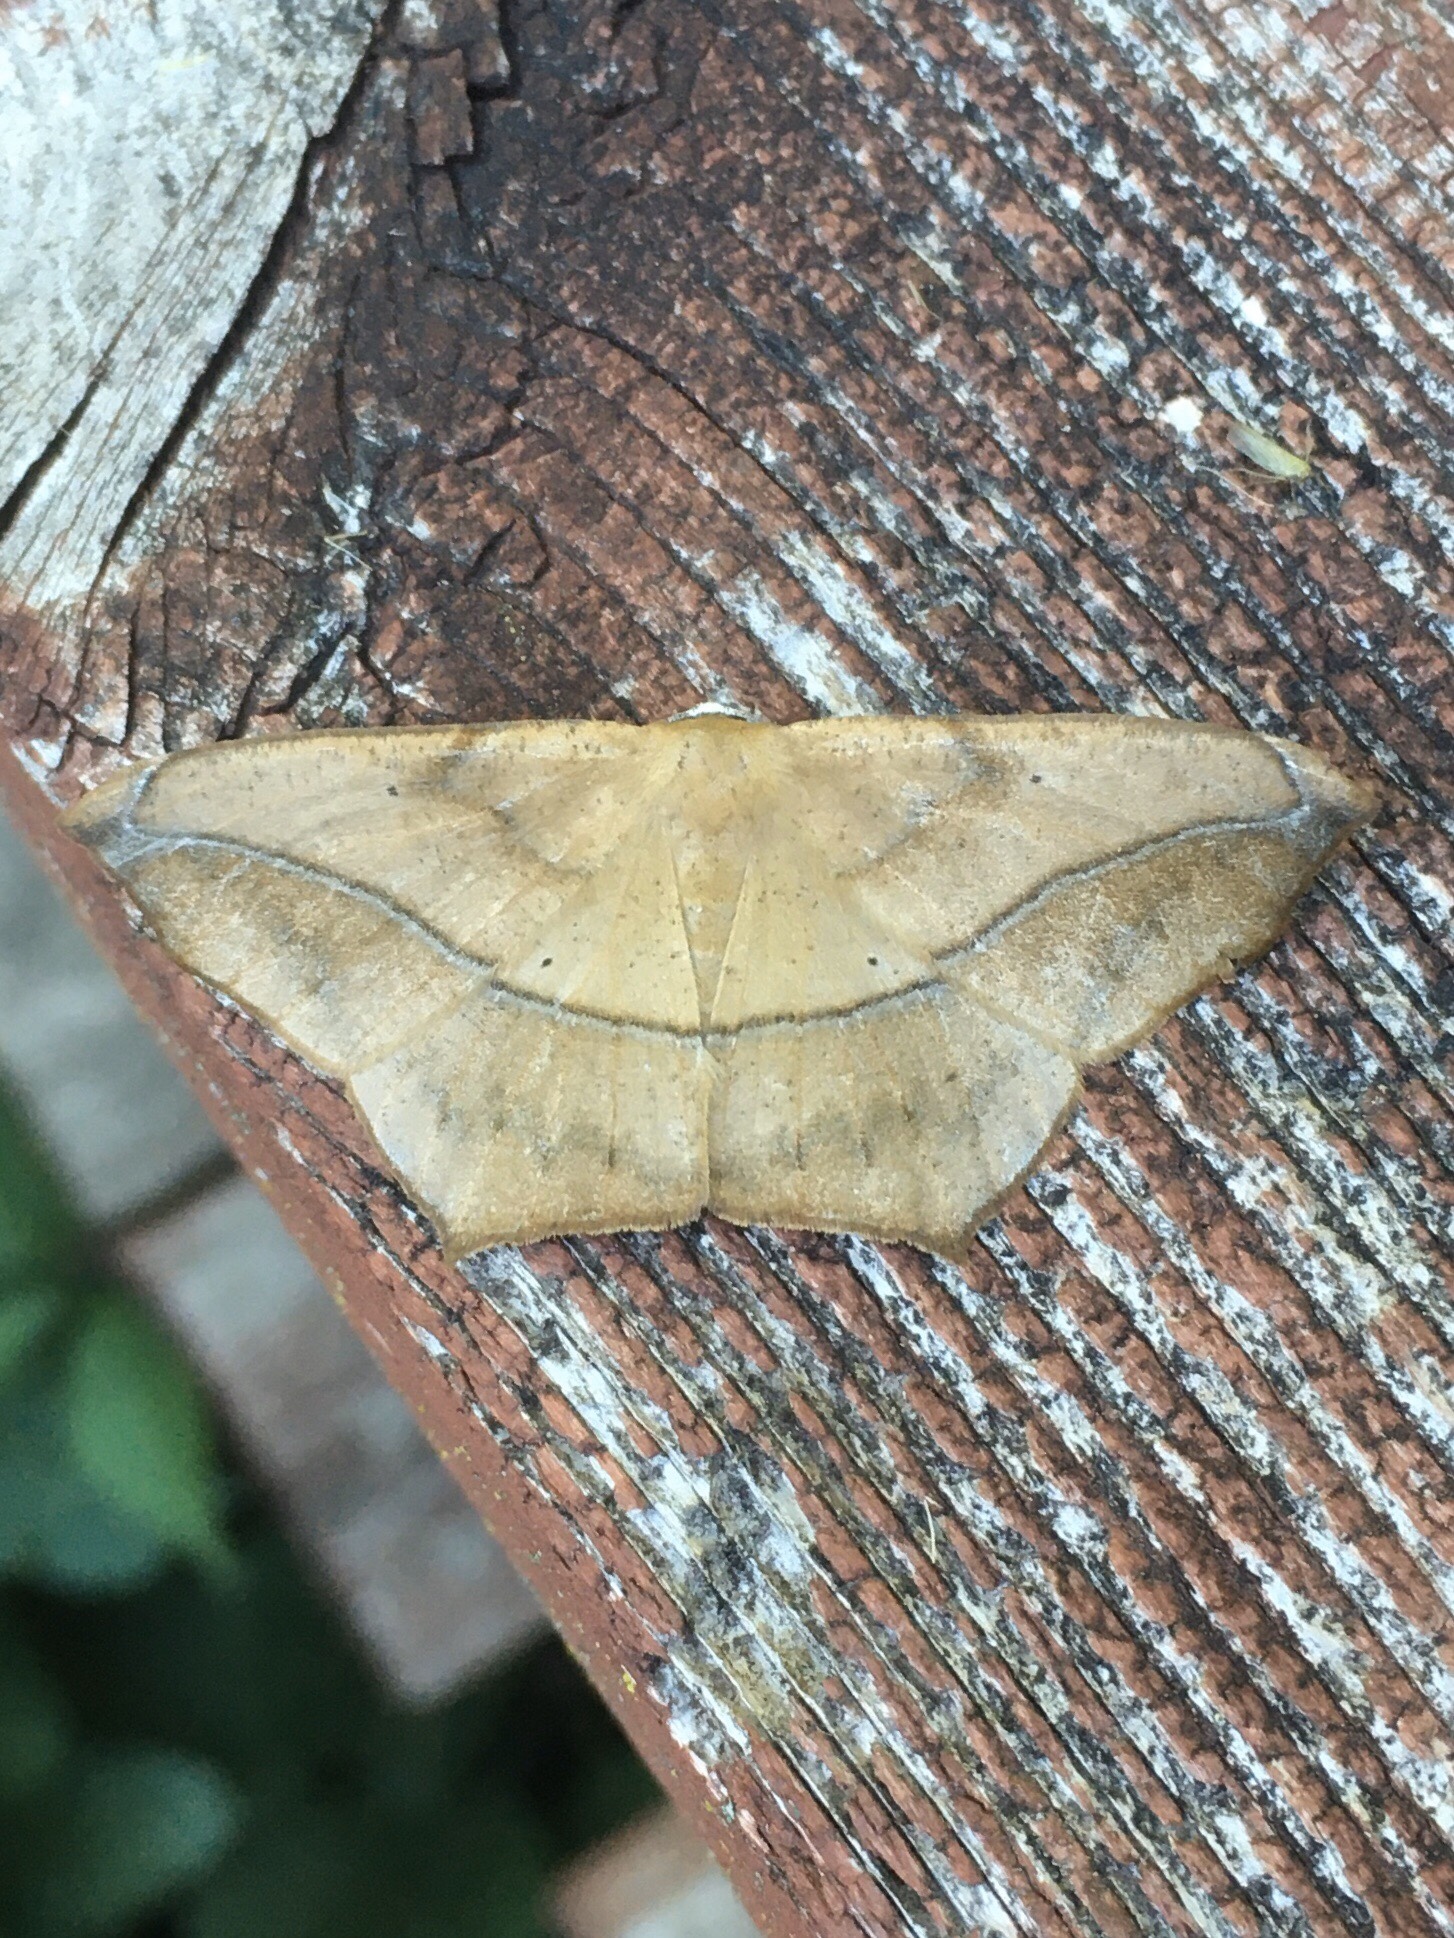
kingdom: Animalia
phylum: Arthropoda
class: Insecta
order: Lepidoptera
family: Geometridae
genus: Prochoerodes
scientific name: Prochoerodes lineola
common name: Large maple spanworm
